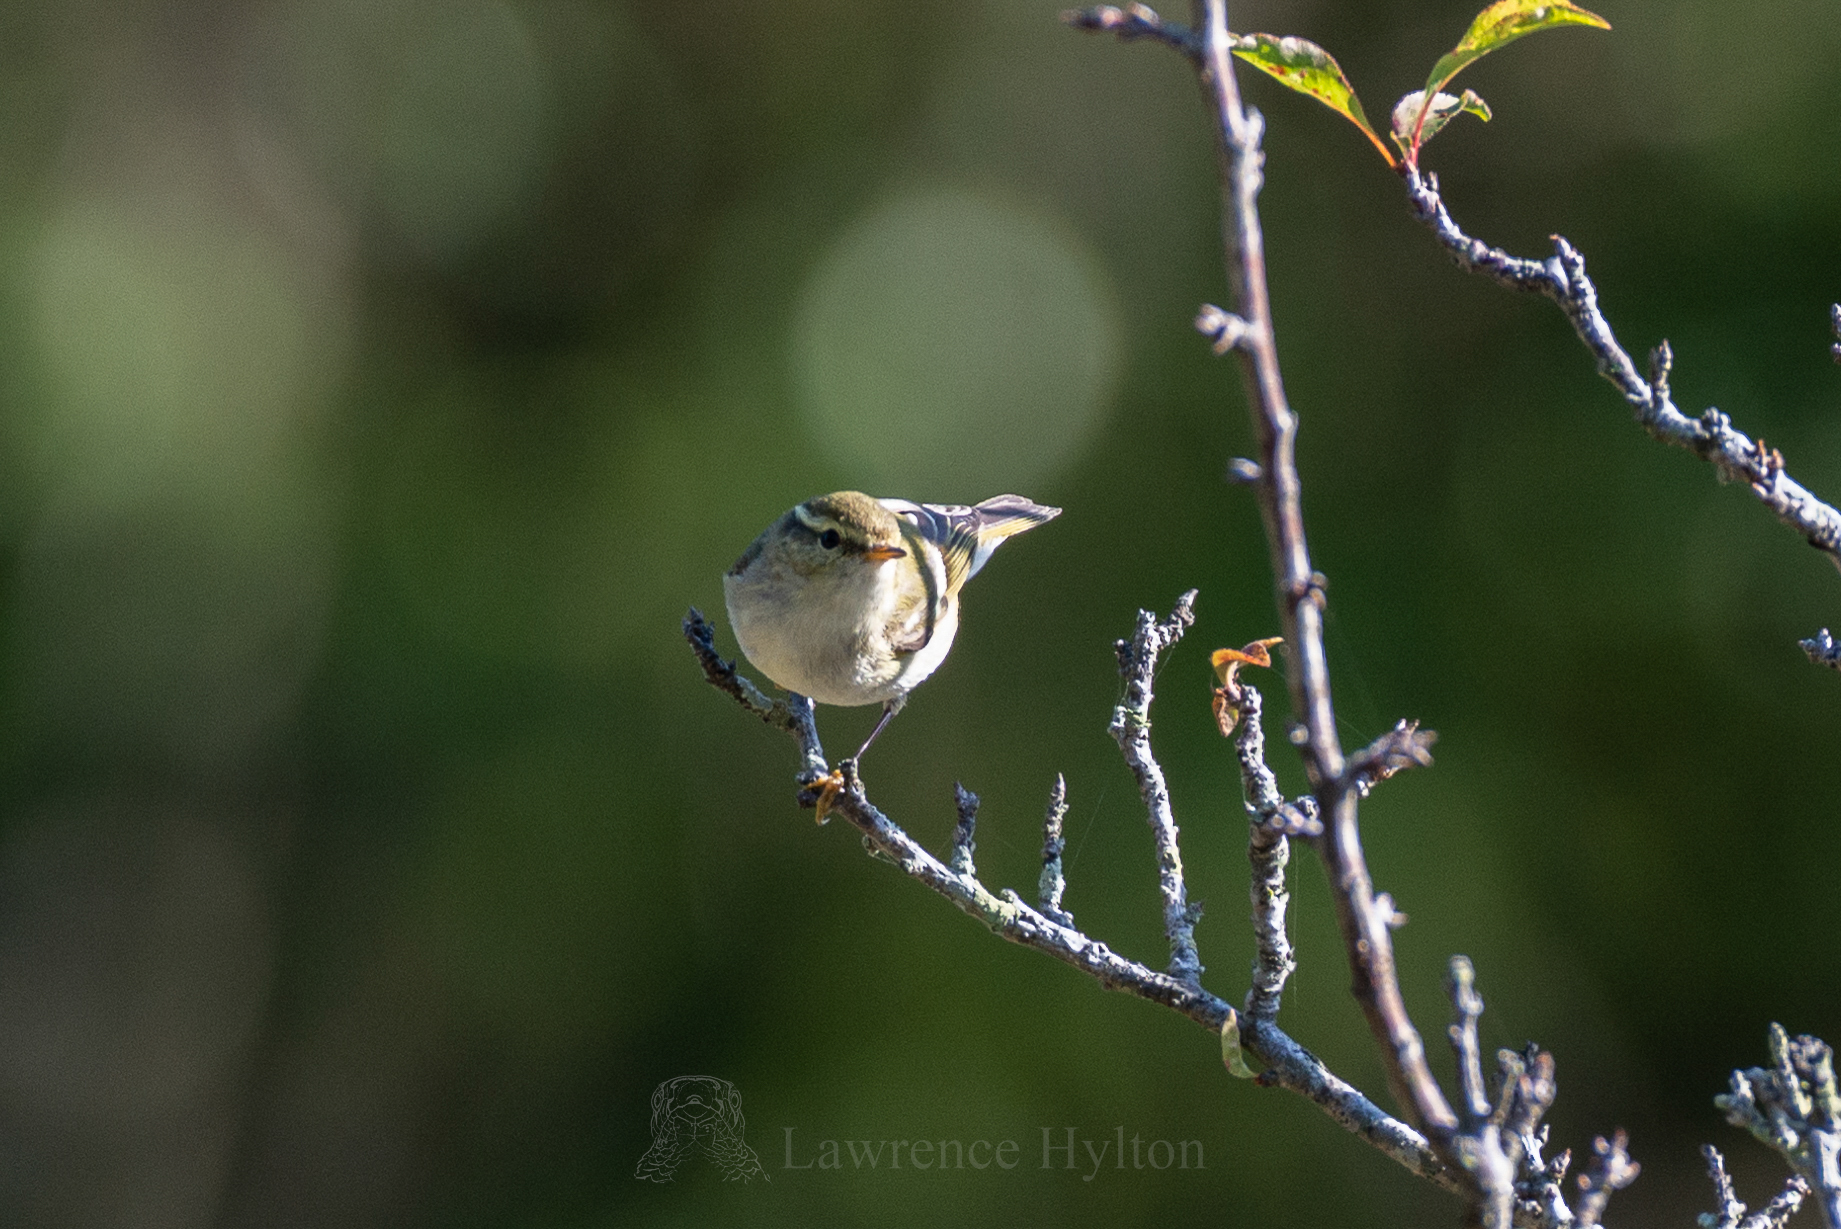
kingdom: Animalia
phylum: Chordata
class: Aves
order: Passeriformes
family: Phylloscopidae
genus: Phylloscopus
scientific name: Phylloscopus inornatus
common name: Yellow-browed warbler
